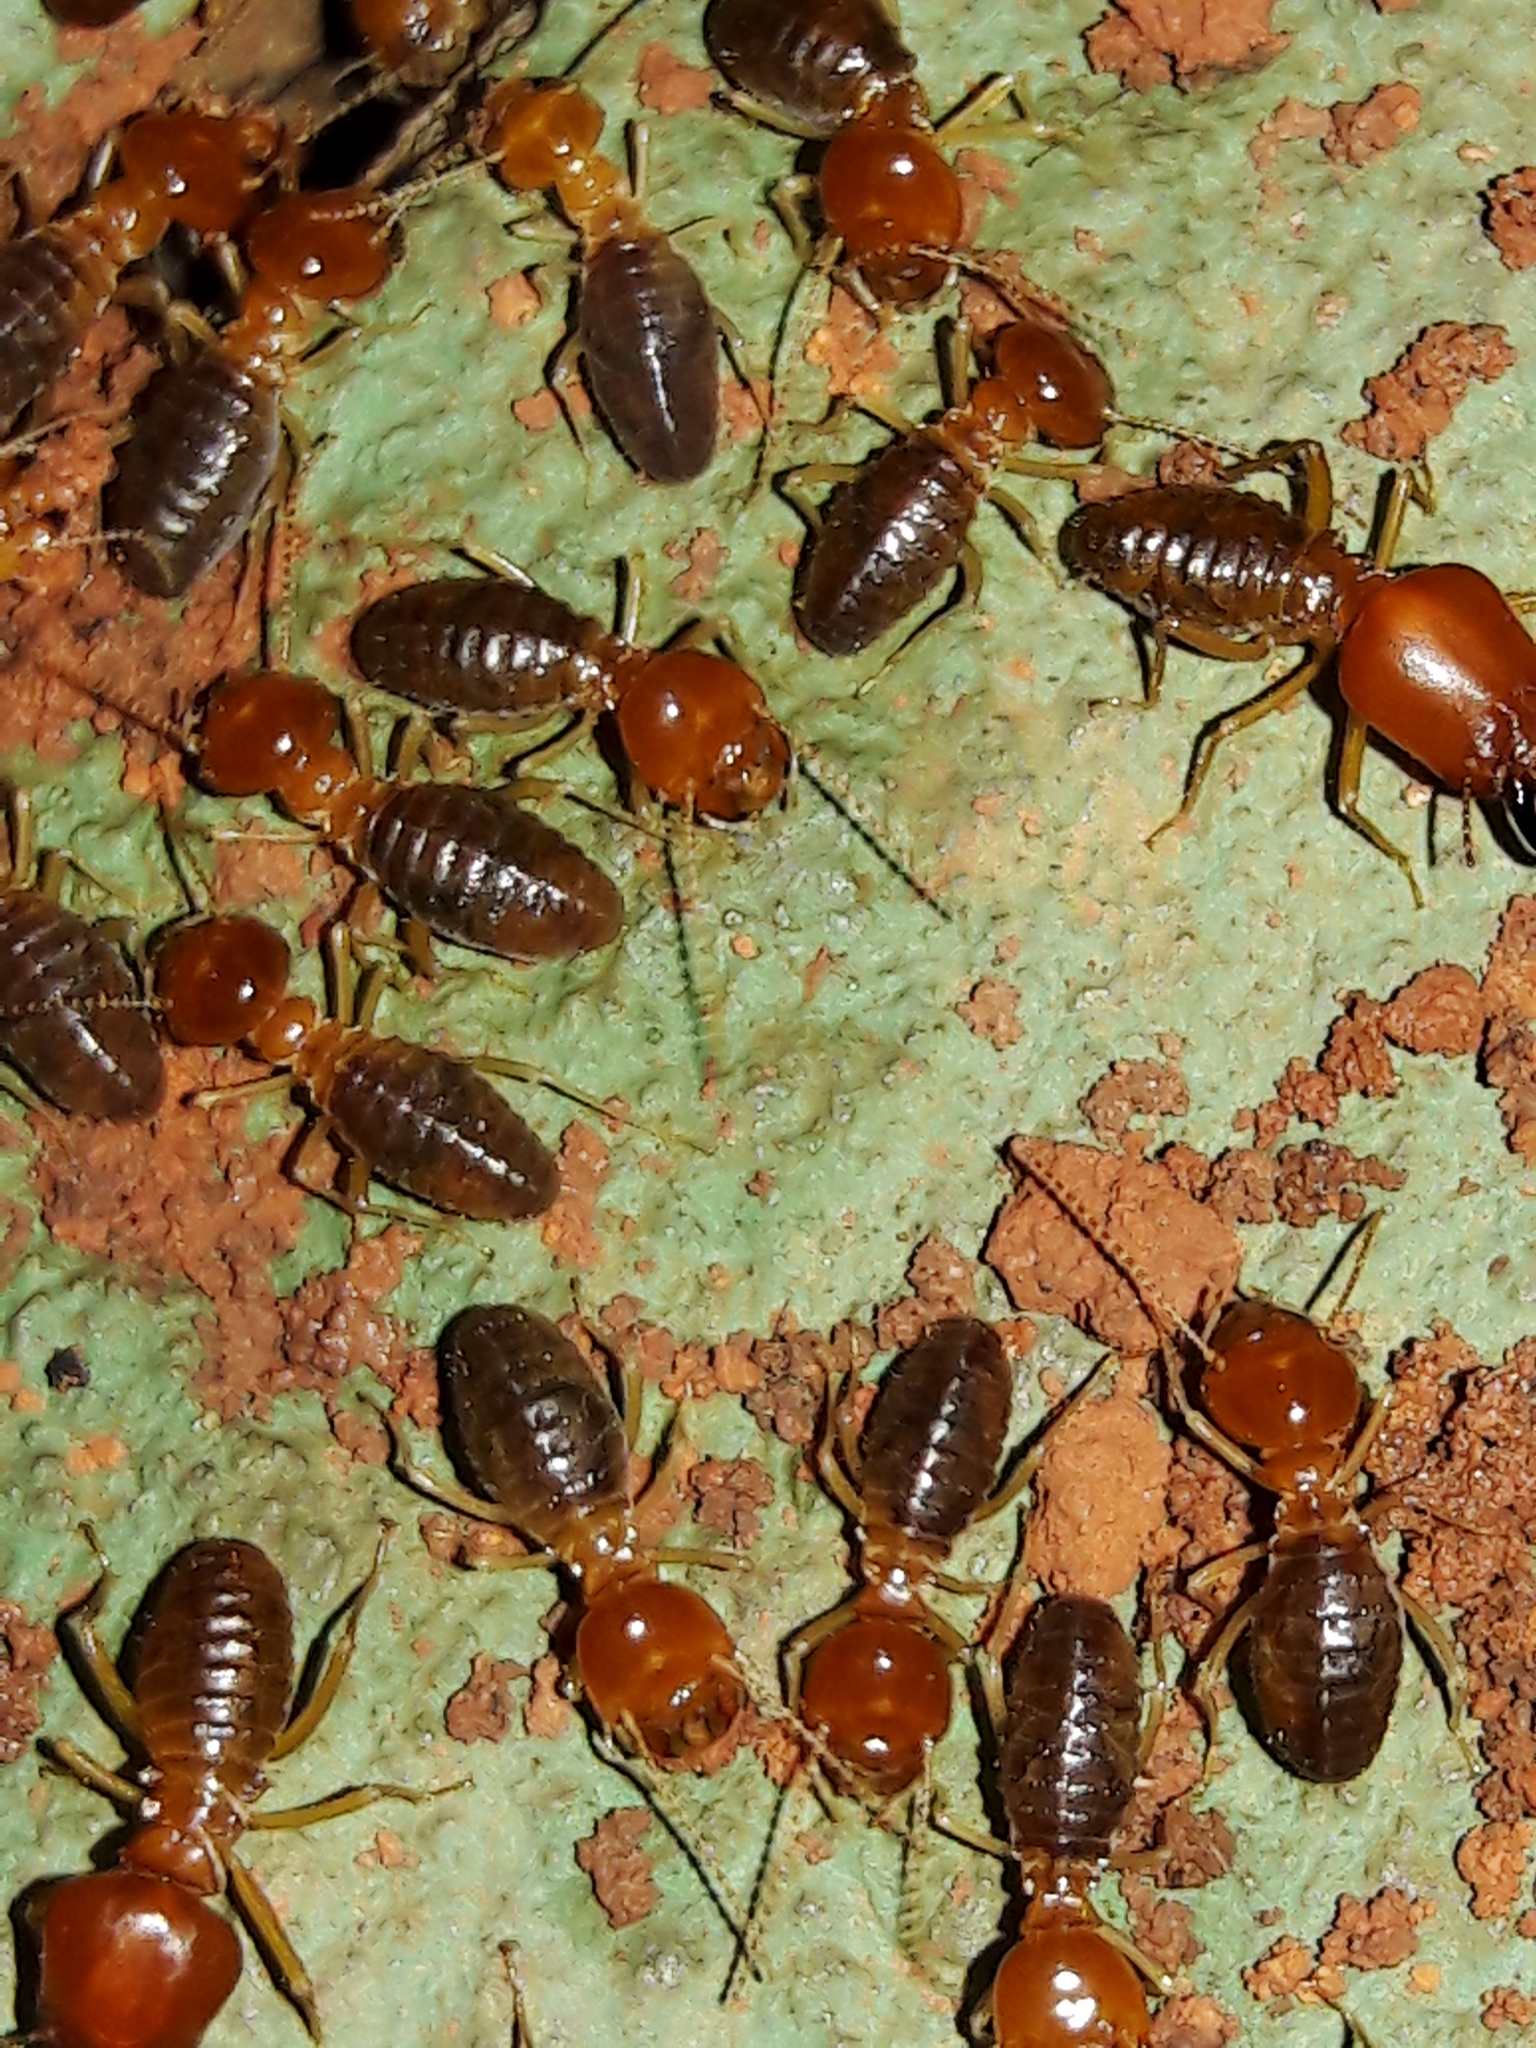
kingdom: Animalia
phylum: Arthropoda
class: Insecta
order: Blattodea
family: Termitidae
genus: Syntermes
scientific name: Syntermes molestus
